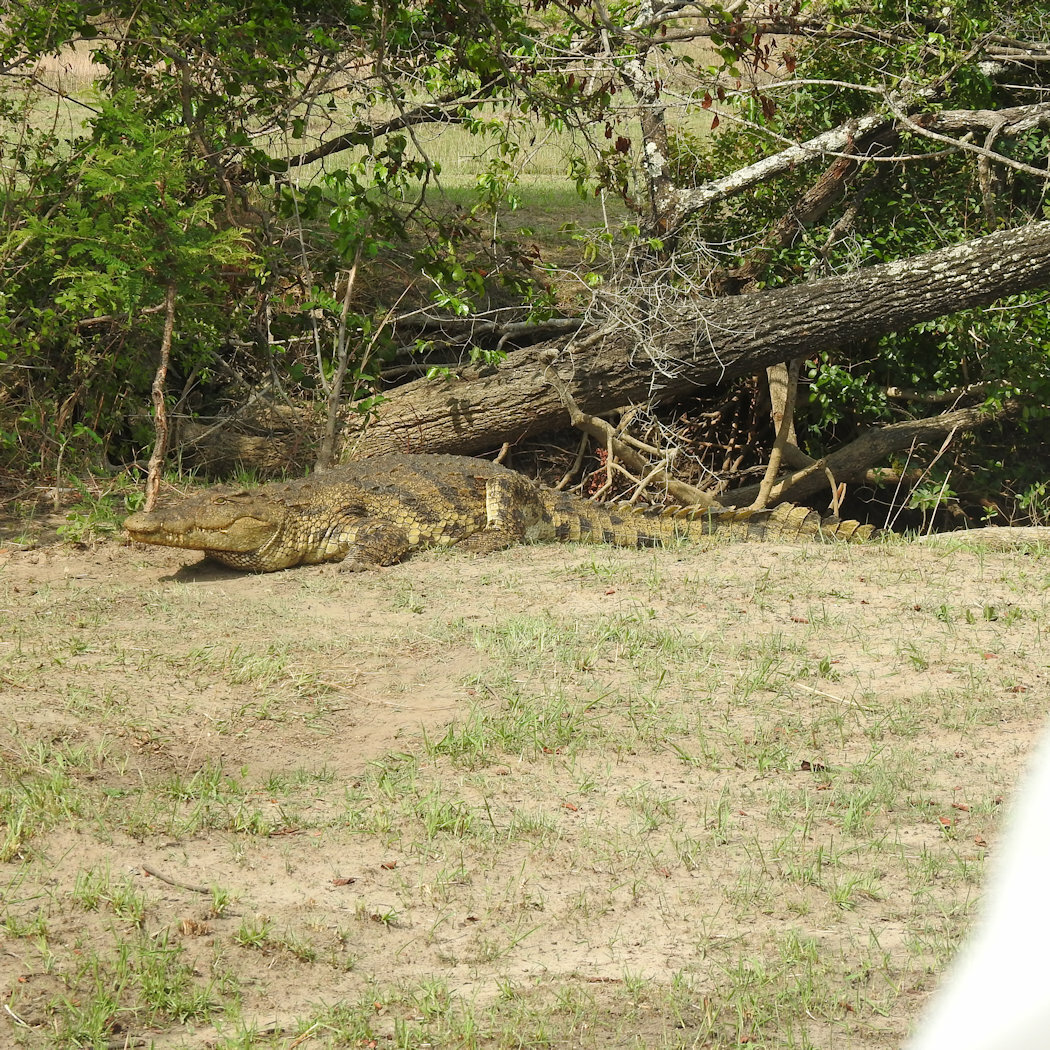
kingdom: Animalia
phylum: Chordata
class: Crocodylia
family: Crocodylidae
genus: Crocodylus
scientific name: Crocodylus niloticus
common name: Nile crocodile
